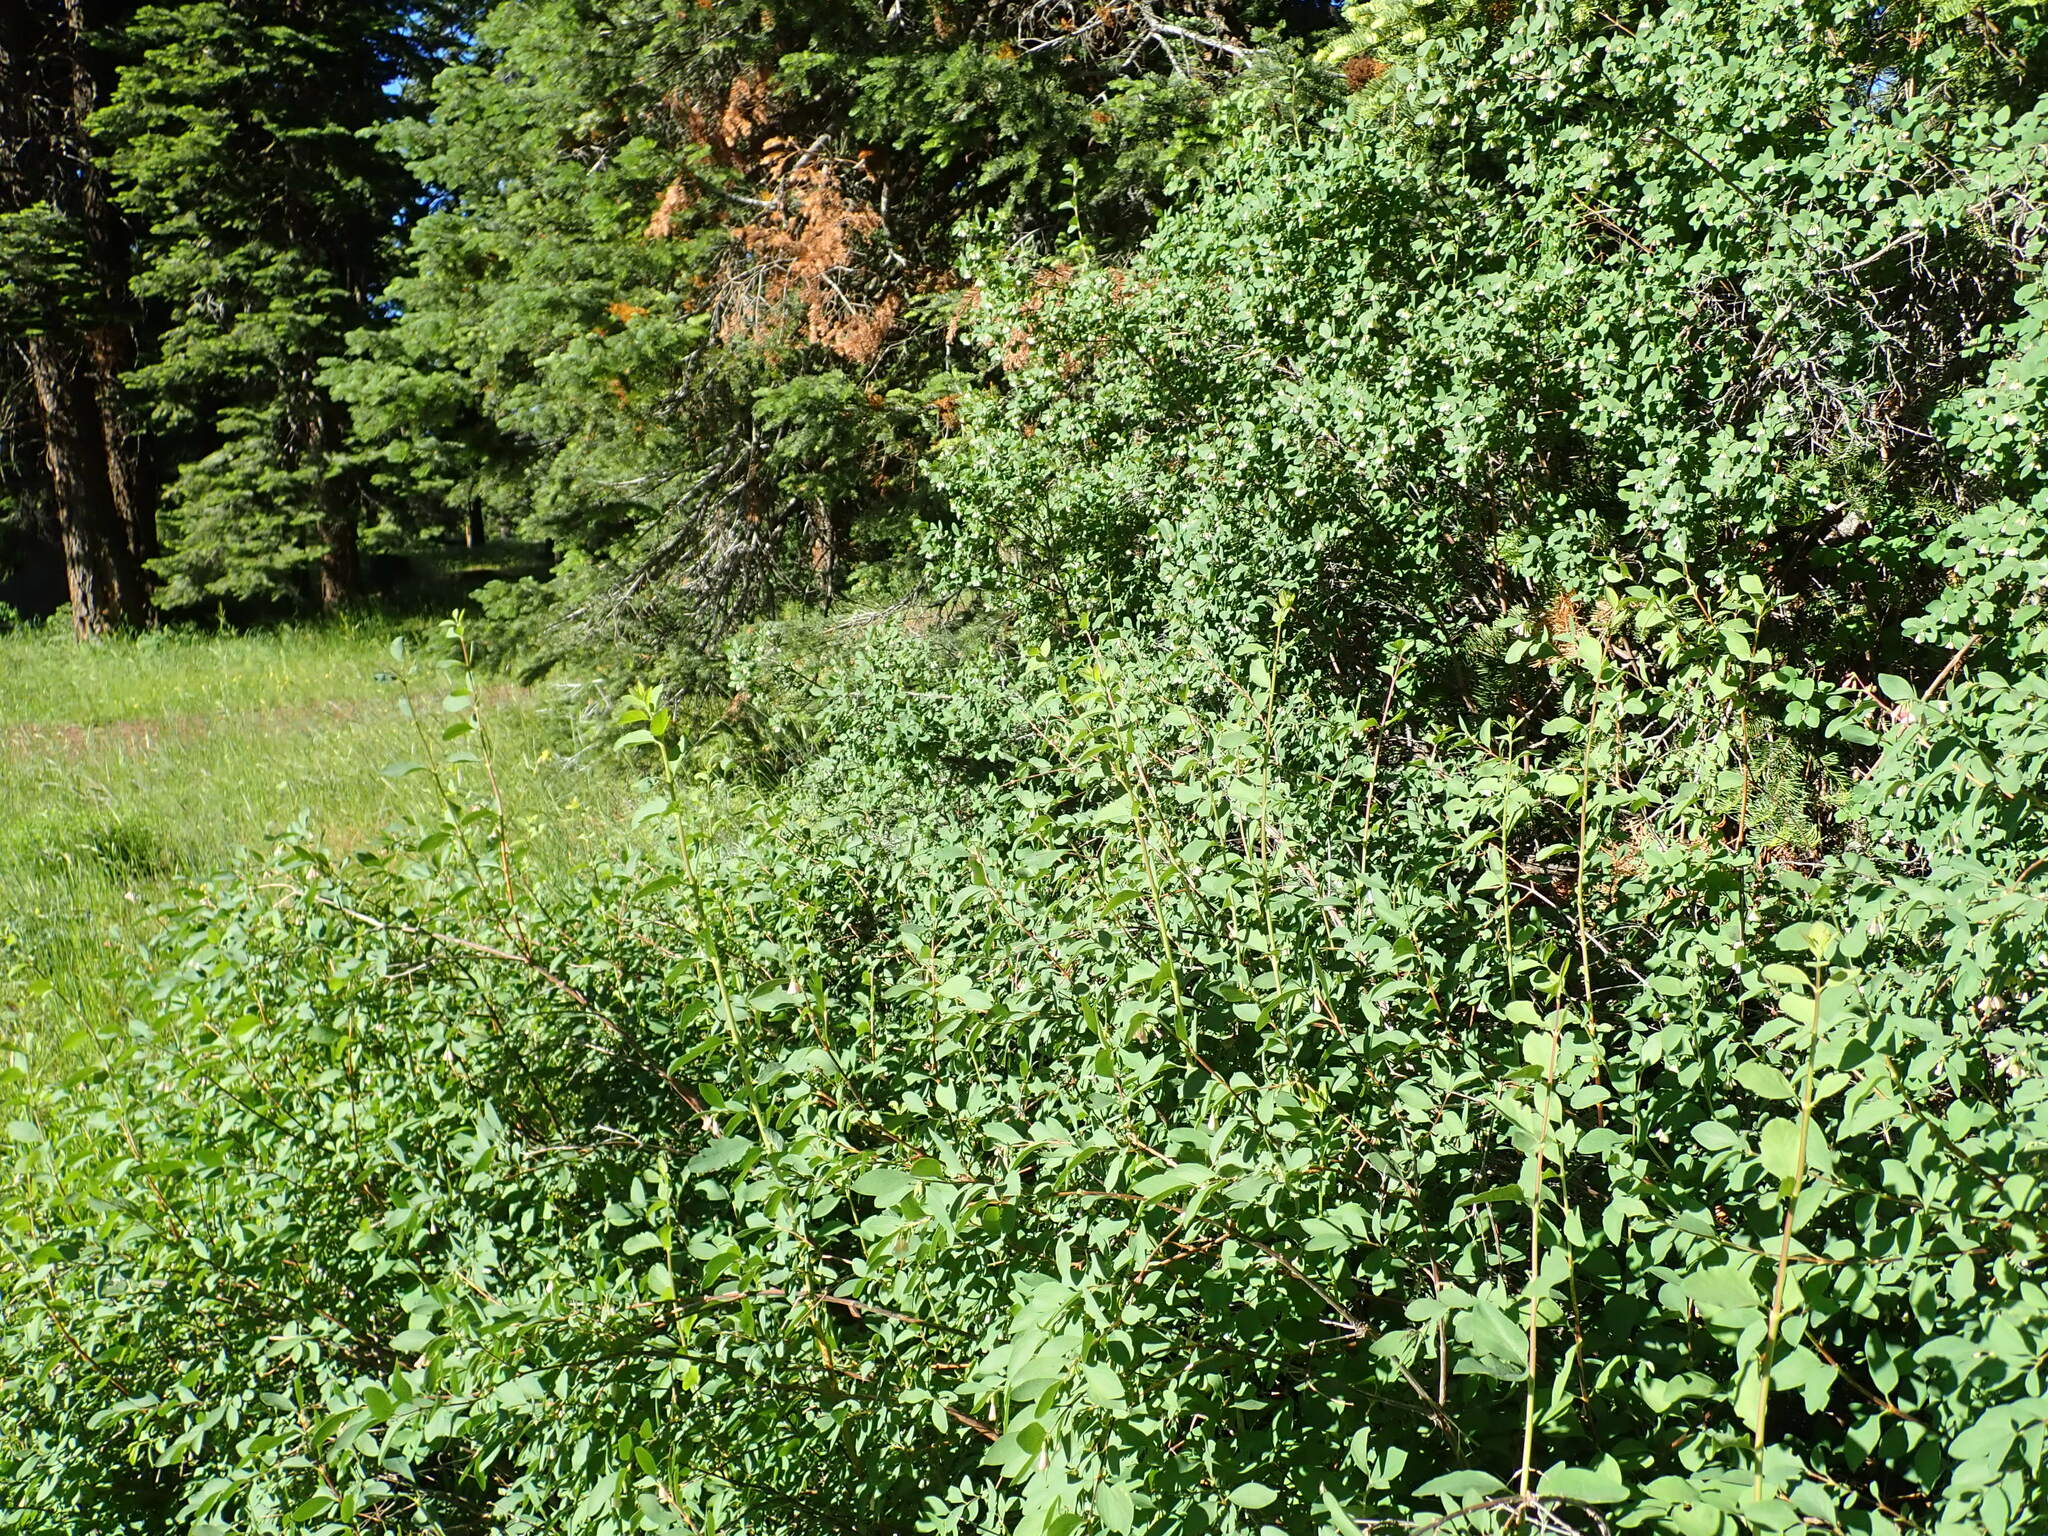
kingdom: Plantae
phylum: Tracheophyta
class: Magnoliopsida
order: Dipsacales
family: Caprifoliaceae
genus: Symphoricarpos
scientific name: Symphoricarpos rotundifolius
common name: Round-leaved snowberry
